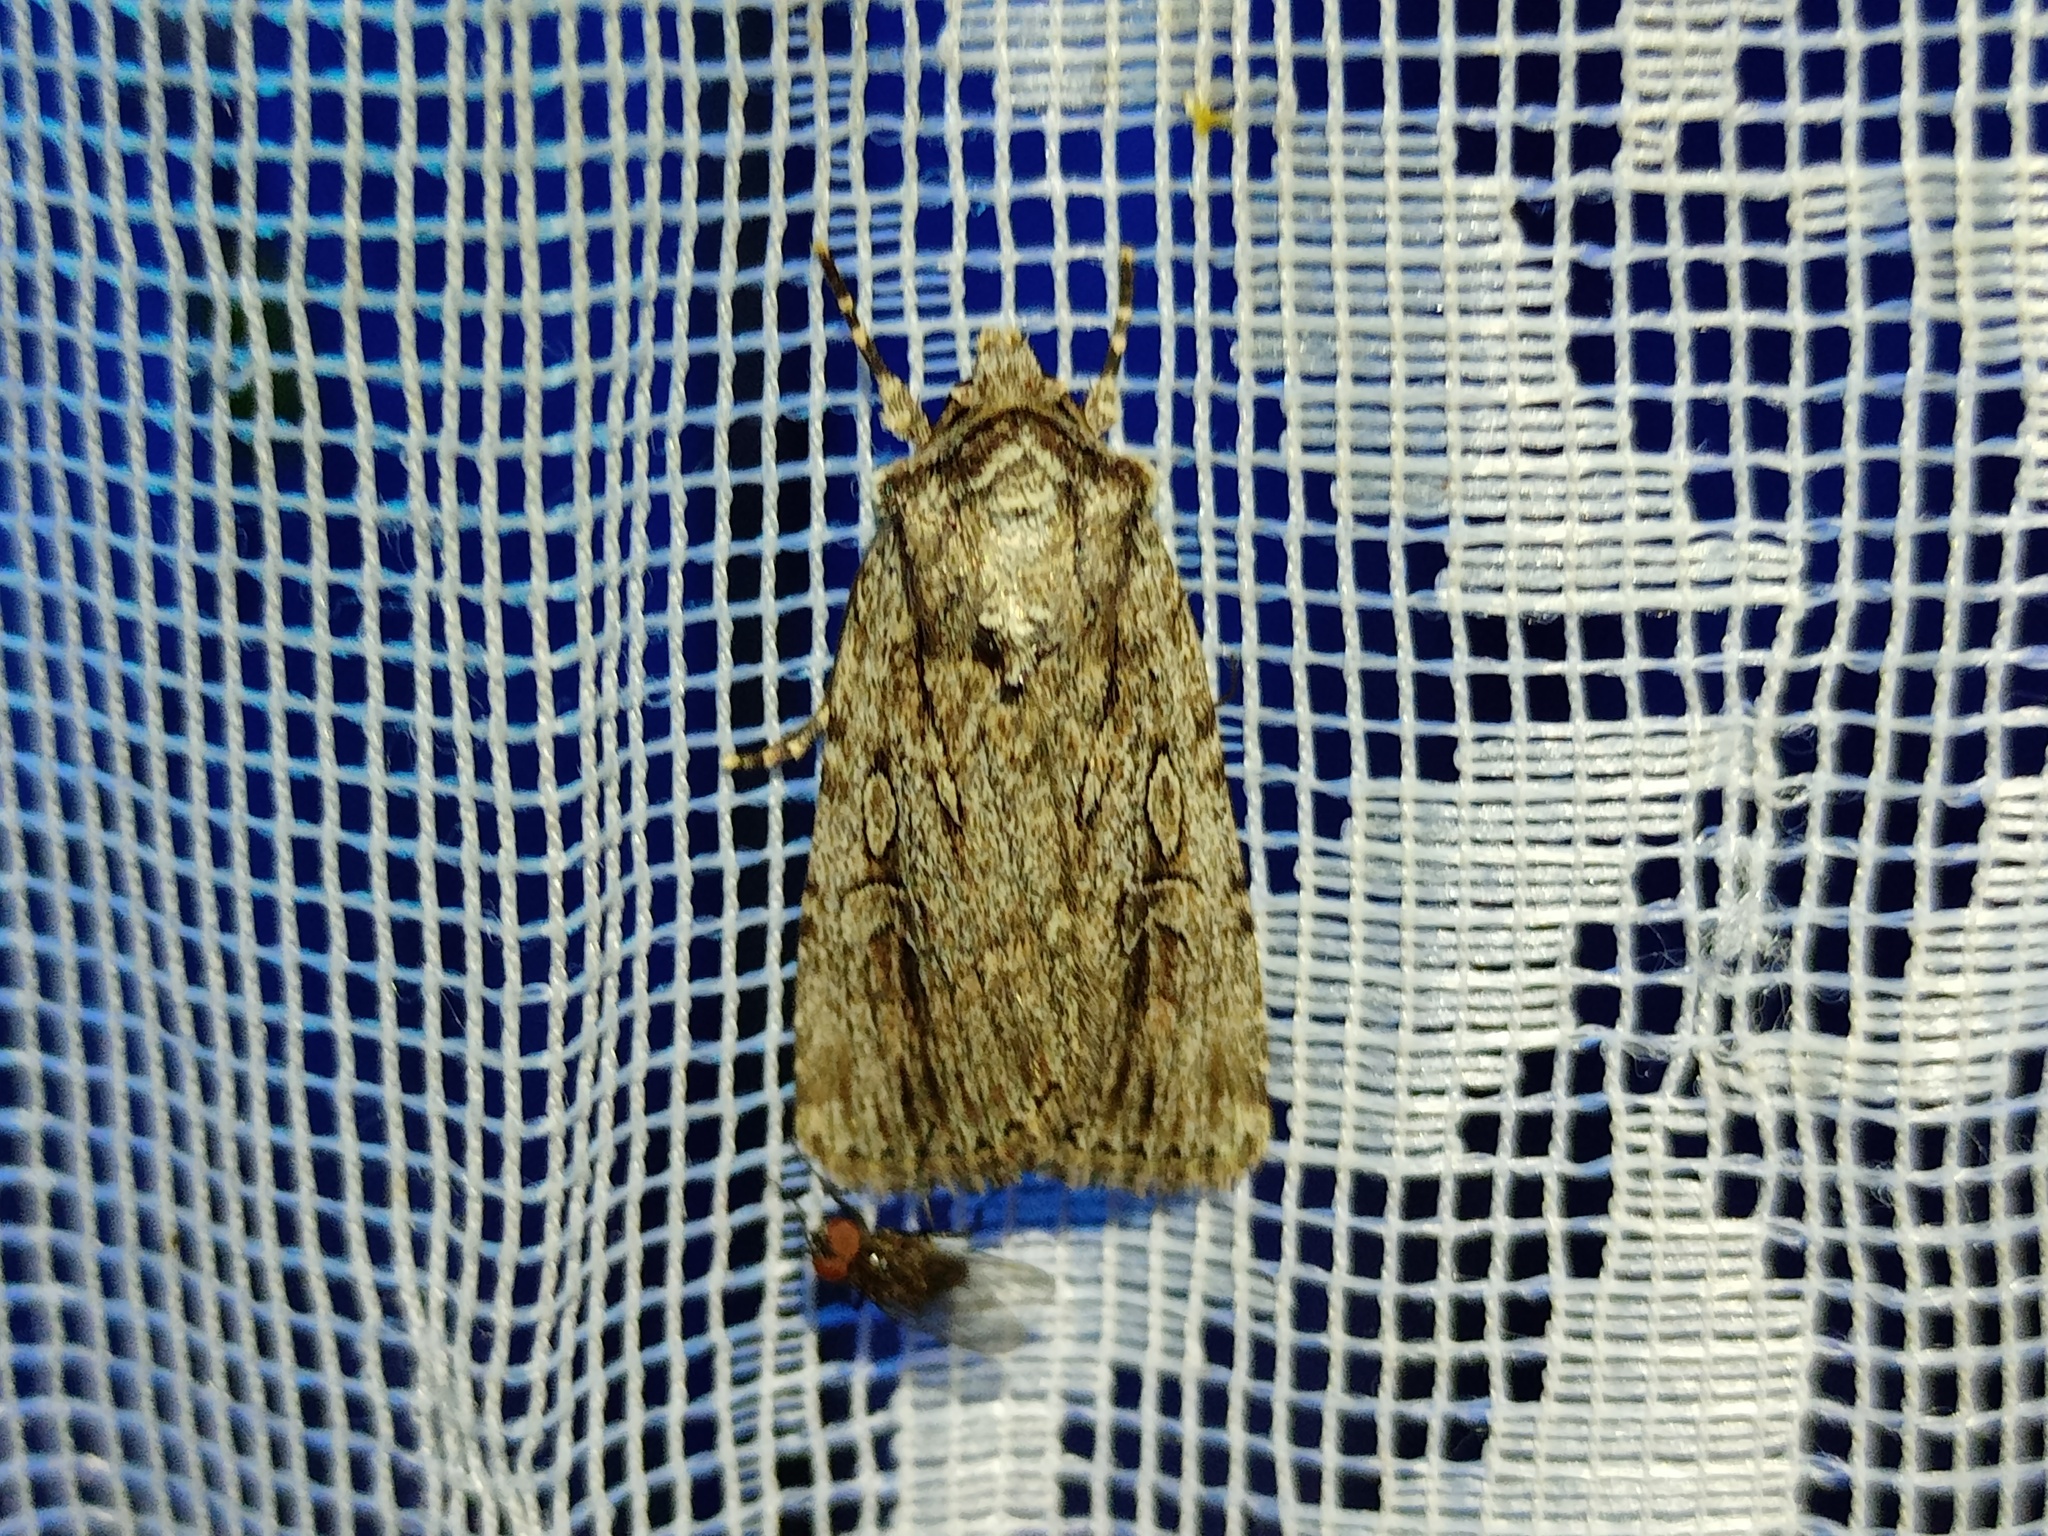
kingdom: Animalia
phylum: Arthropoda
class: Insecta
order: Lepidoptera
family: Noctuidae
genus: Yigoga
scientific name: Yigoga signifera
